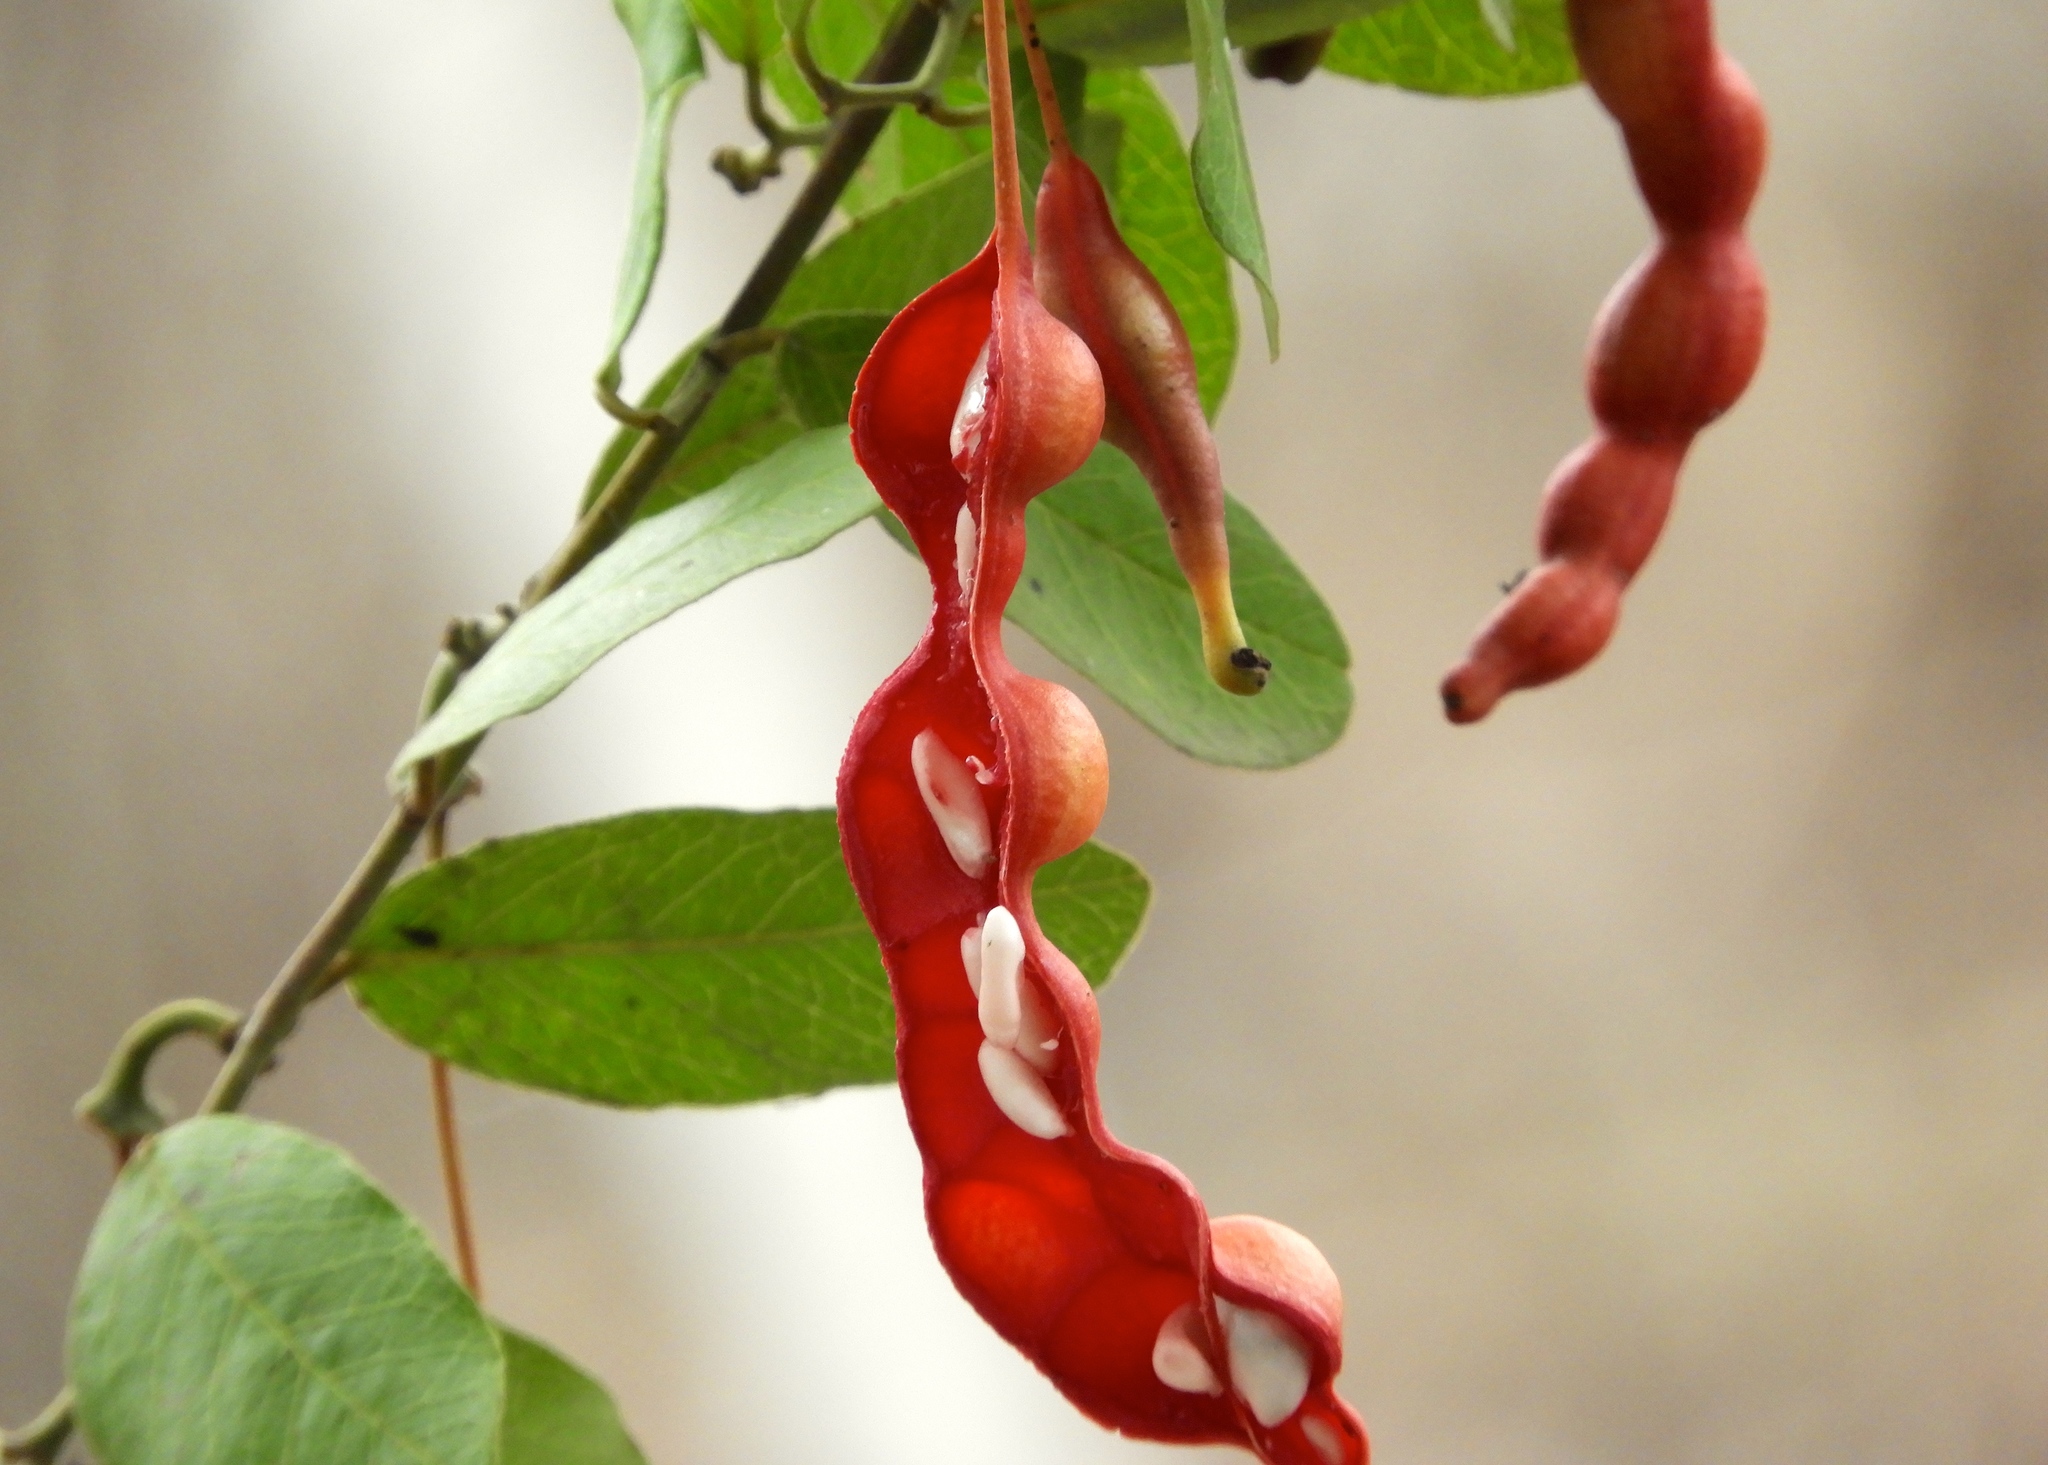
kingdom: Plantae
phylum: Tracheophyta
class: Magnoliopsida
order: Brassicales
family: Capparaceae
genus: Cynophalla
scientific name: Cynophalla flexuosa
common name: Capertree
